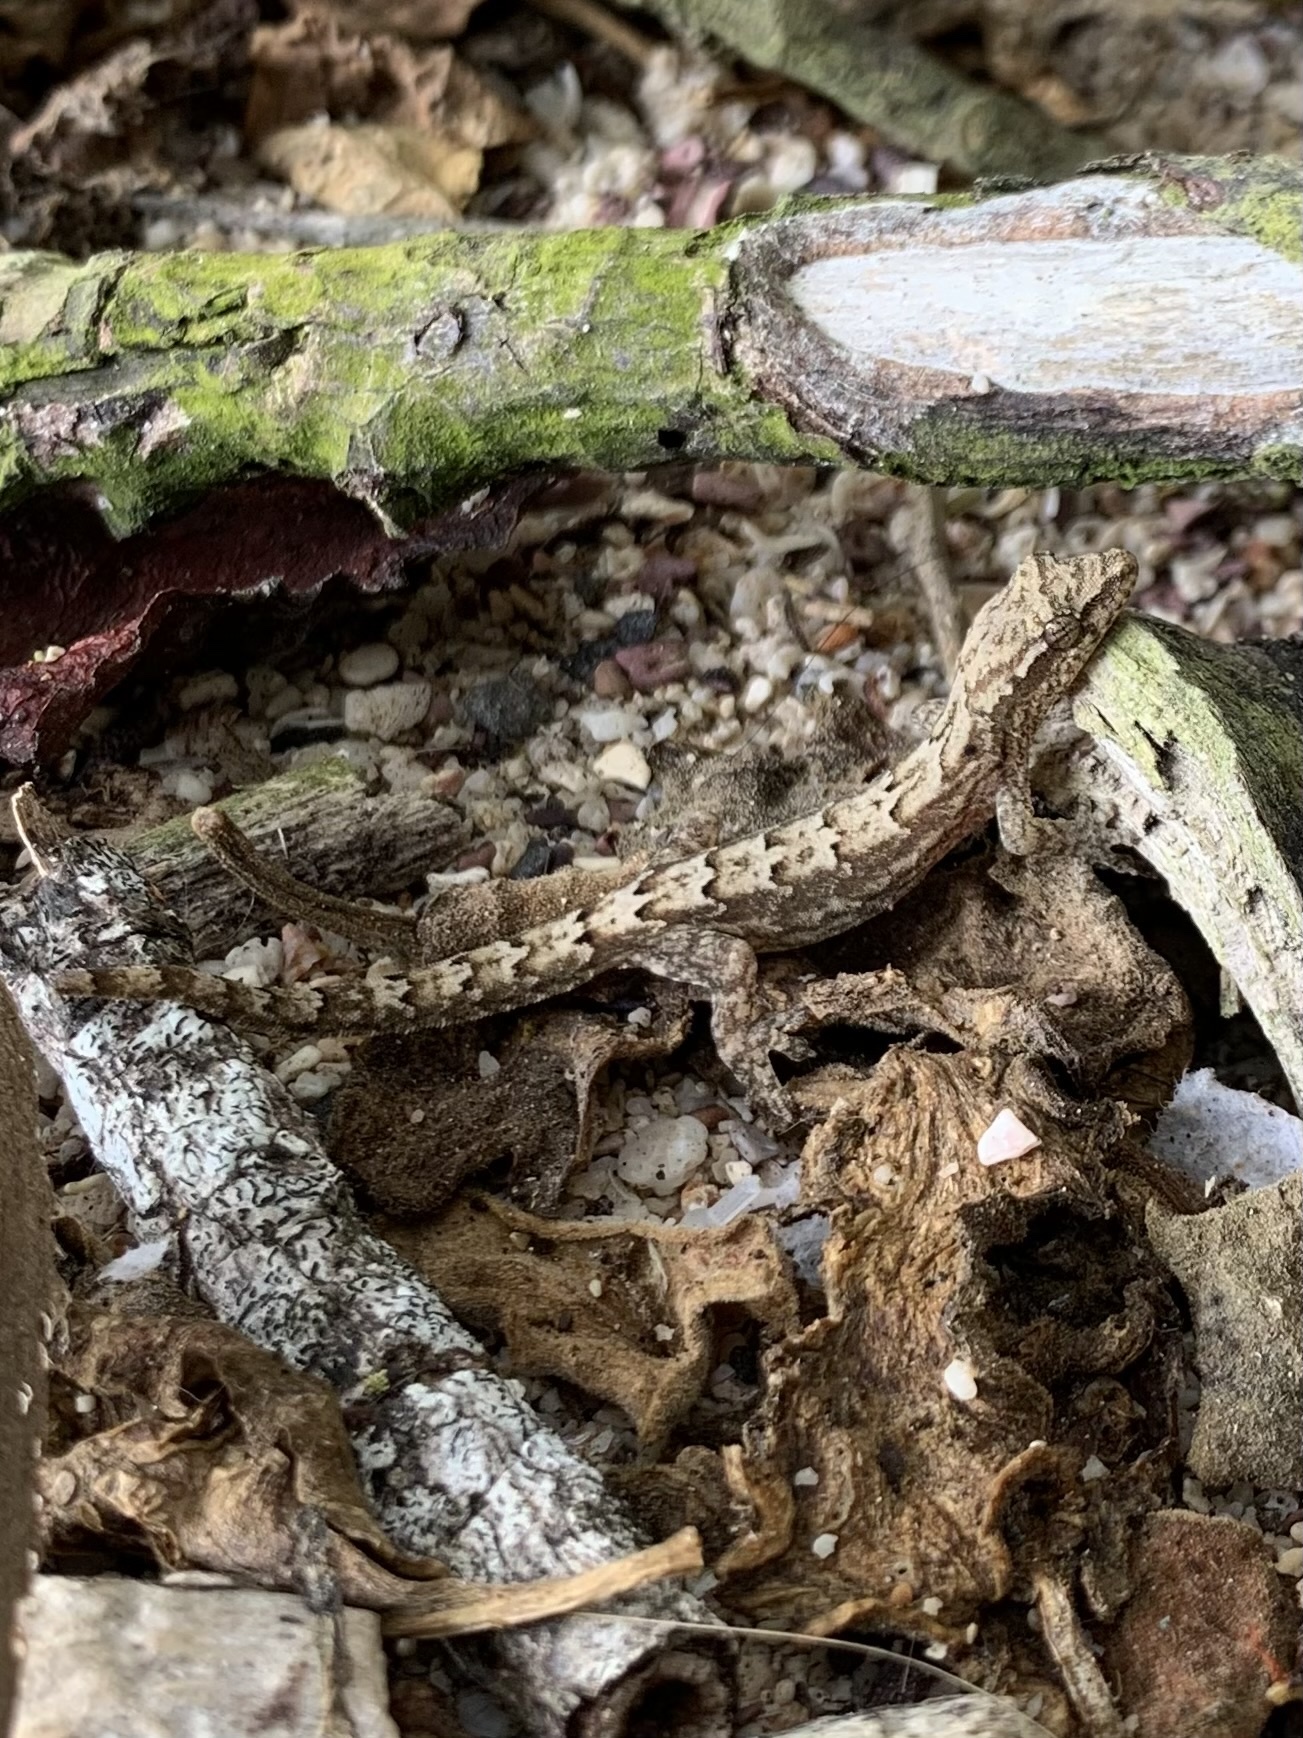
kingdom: Animalia
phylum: Chordata
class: Squamata
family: Gekkonidae
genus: Lepidodactylus
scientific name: Lepidodactylus lugubris
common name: Mourning gecko
